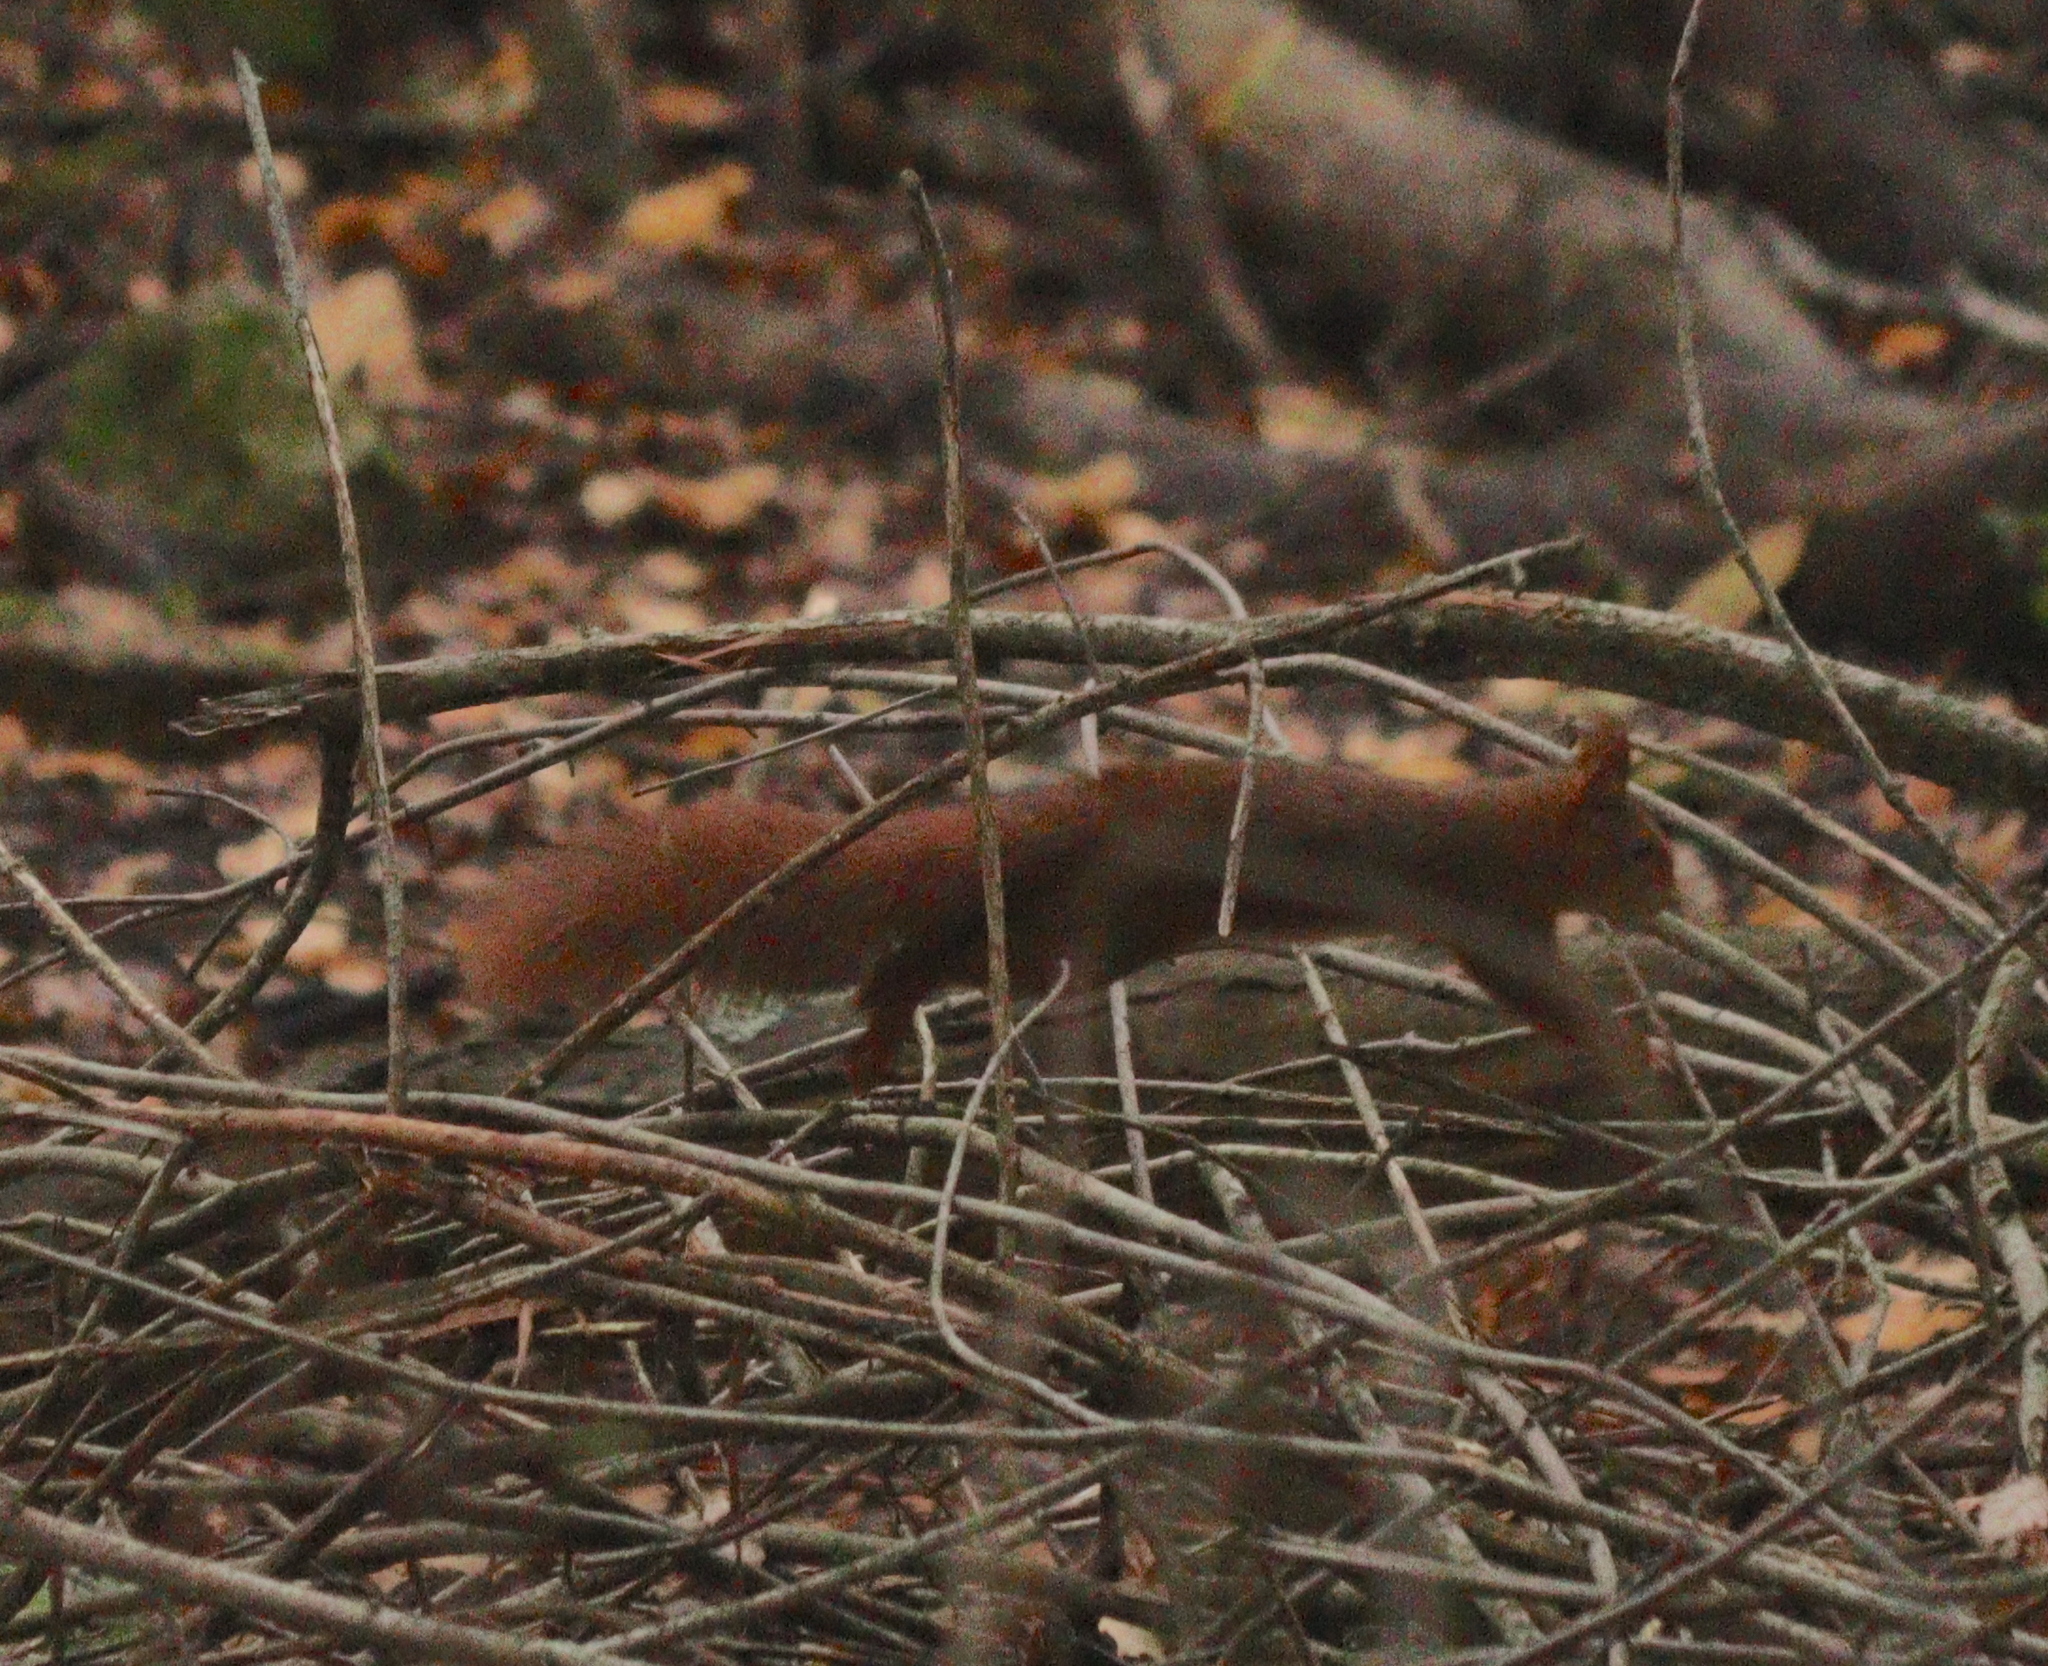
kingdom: Animalia
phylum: Chordata
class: Mammalia
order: Rodentia
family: Sciuridae
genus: Sciurus
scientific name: Sciurus vulgaris
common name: Eurasian red squirrel
